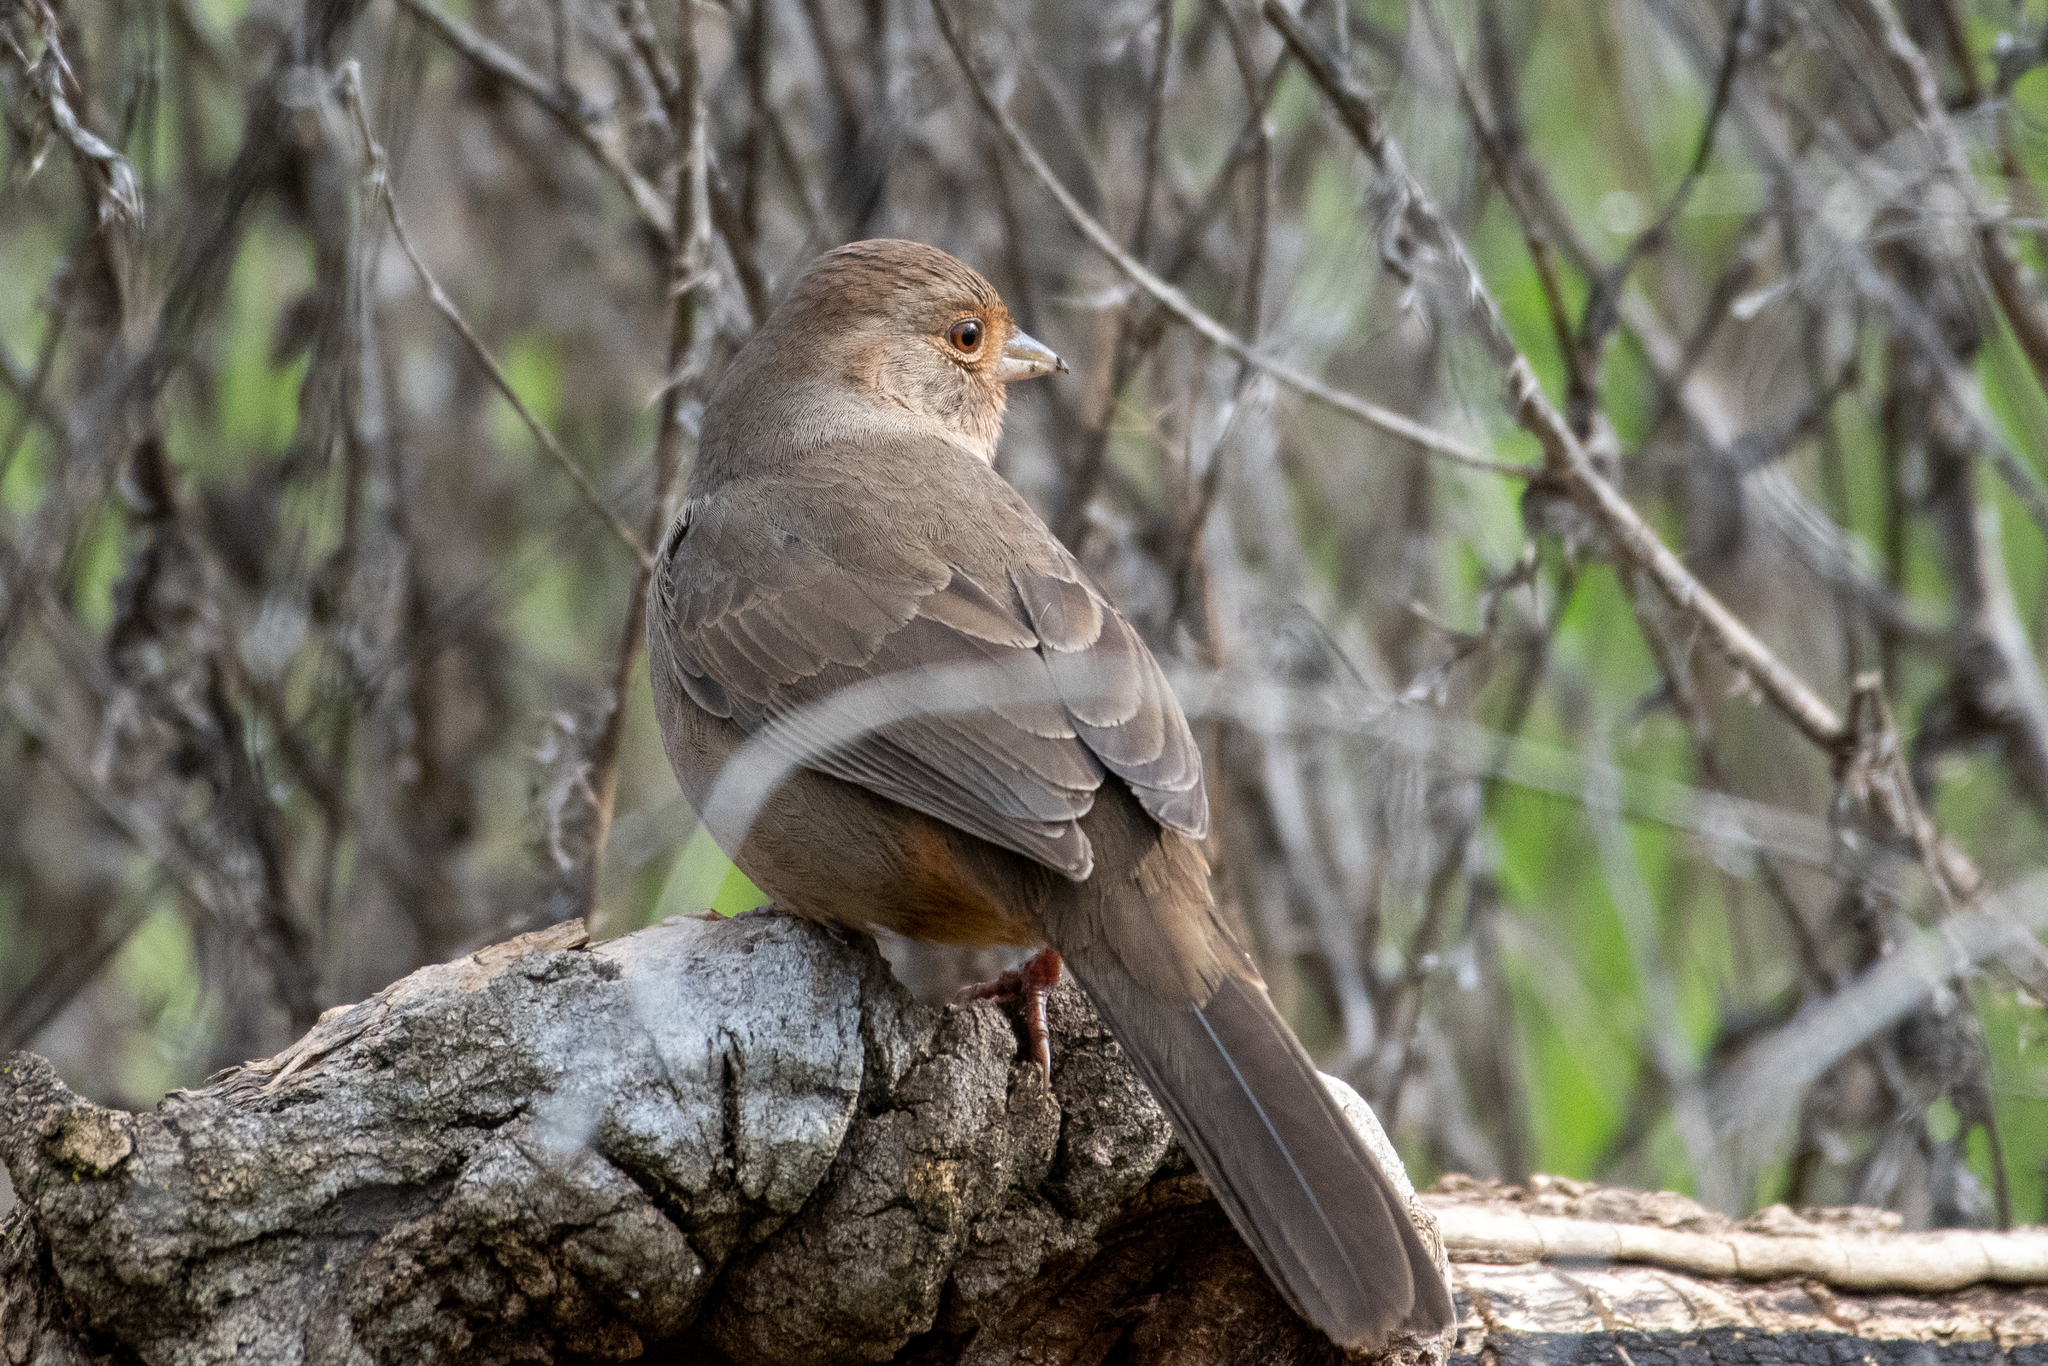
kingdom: Animalia
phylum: Chordata
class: Aves
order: Passeriformes
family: Passerellidae
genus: Melozone
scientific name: Melozone crissalis
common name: California towhee
